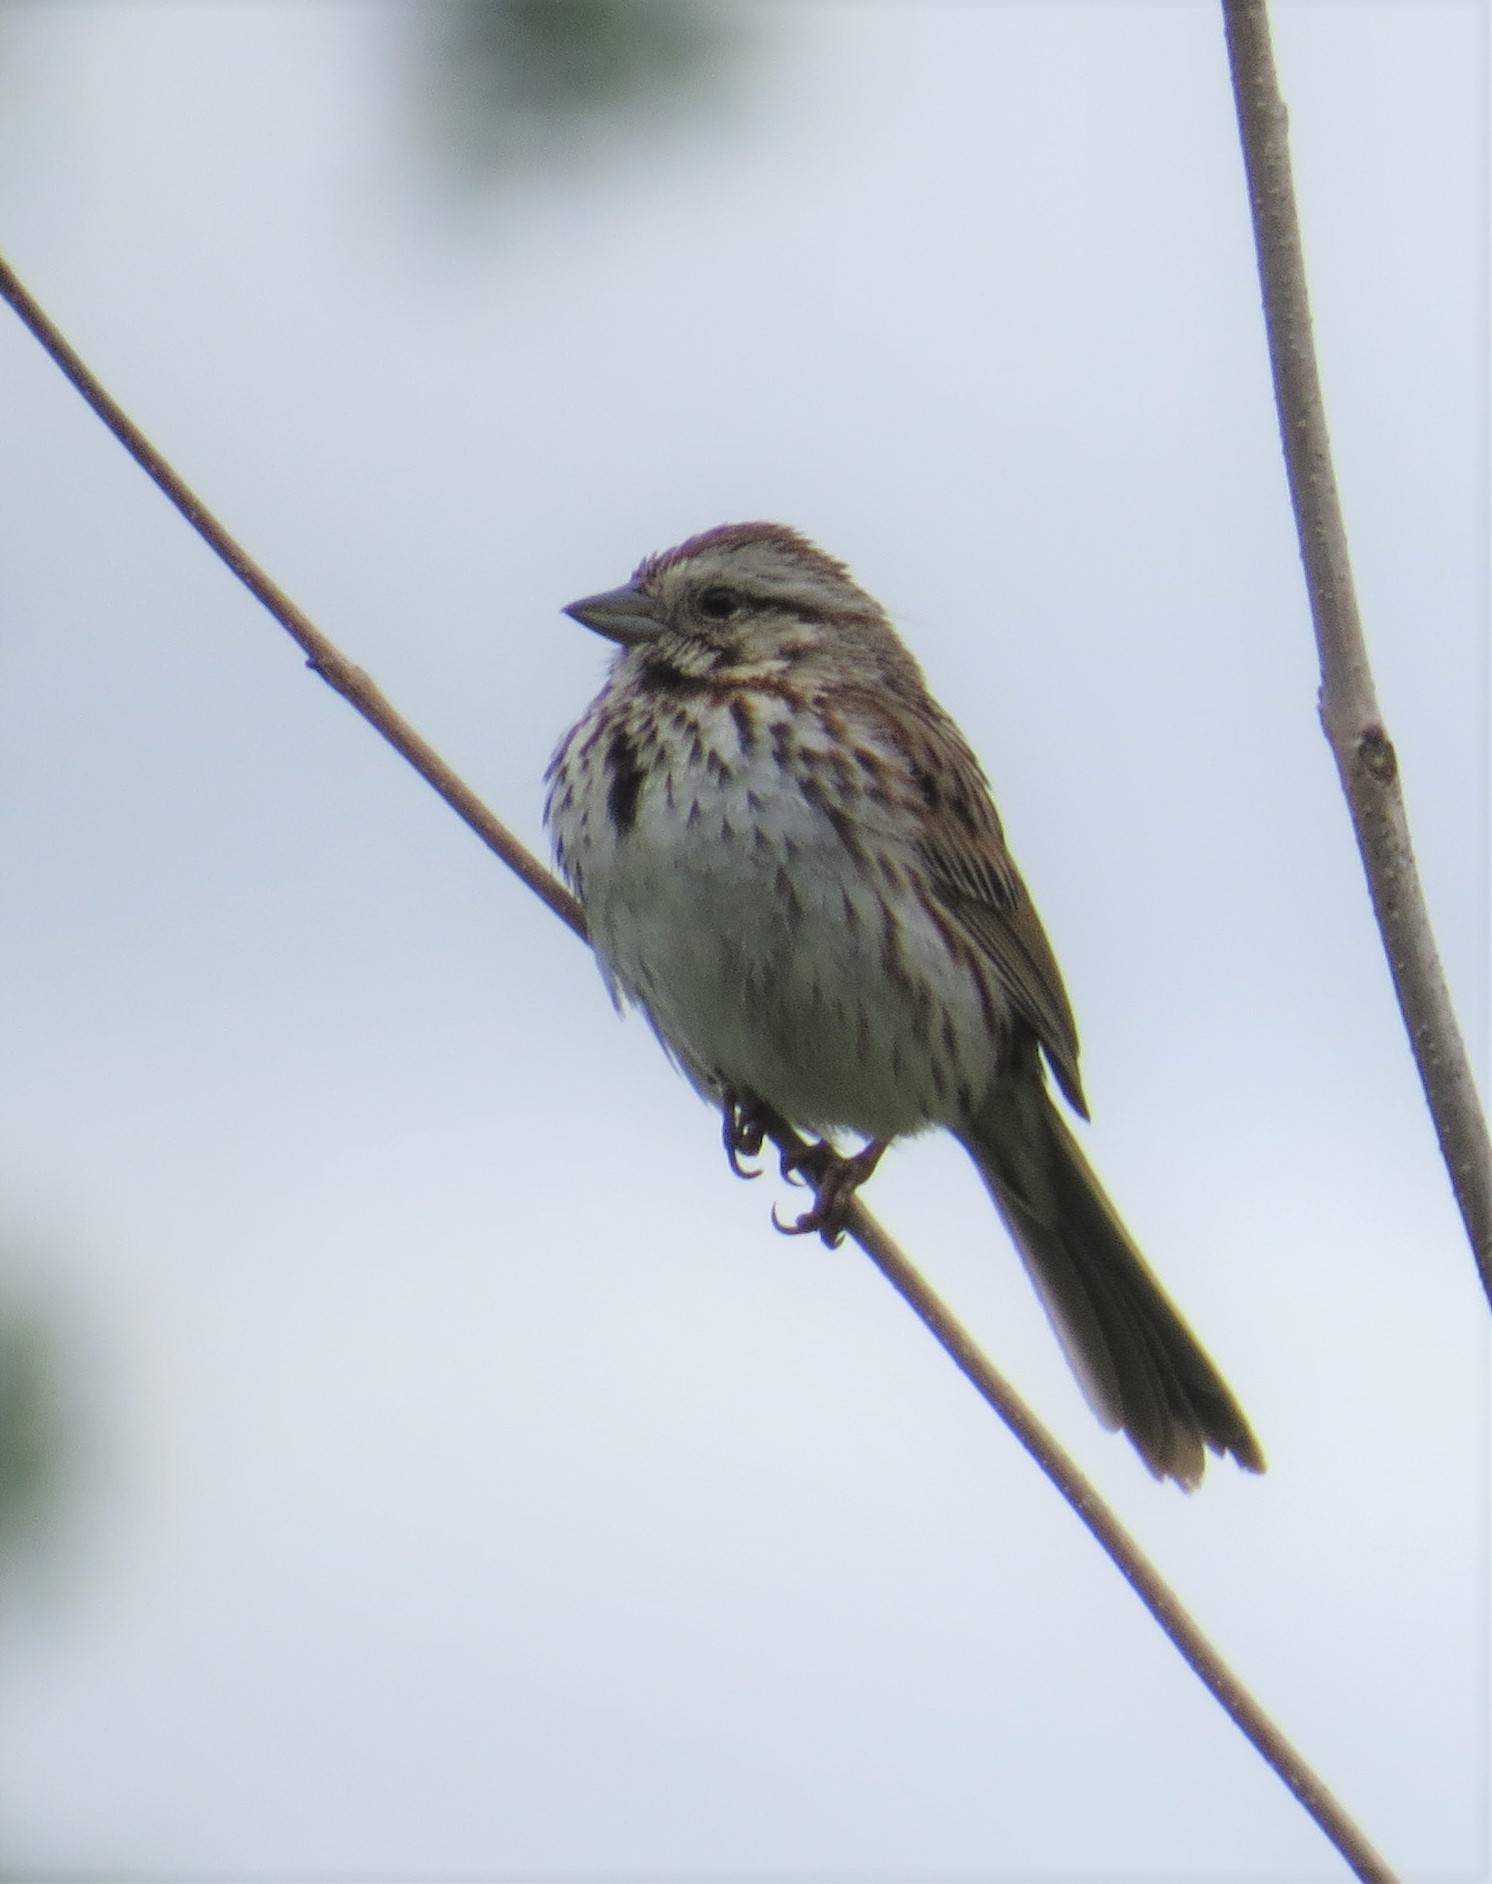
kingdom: Animalia
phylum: Chordata
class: Aves
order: Passeriformes
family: Passerellidae
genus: Melospiza
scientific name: Melospiza melodia
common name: Song sparrow
